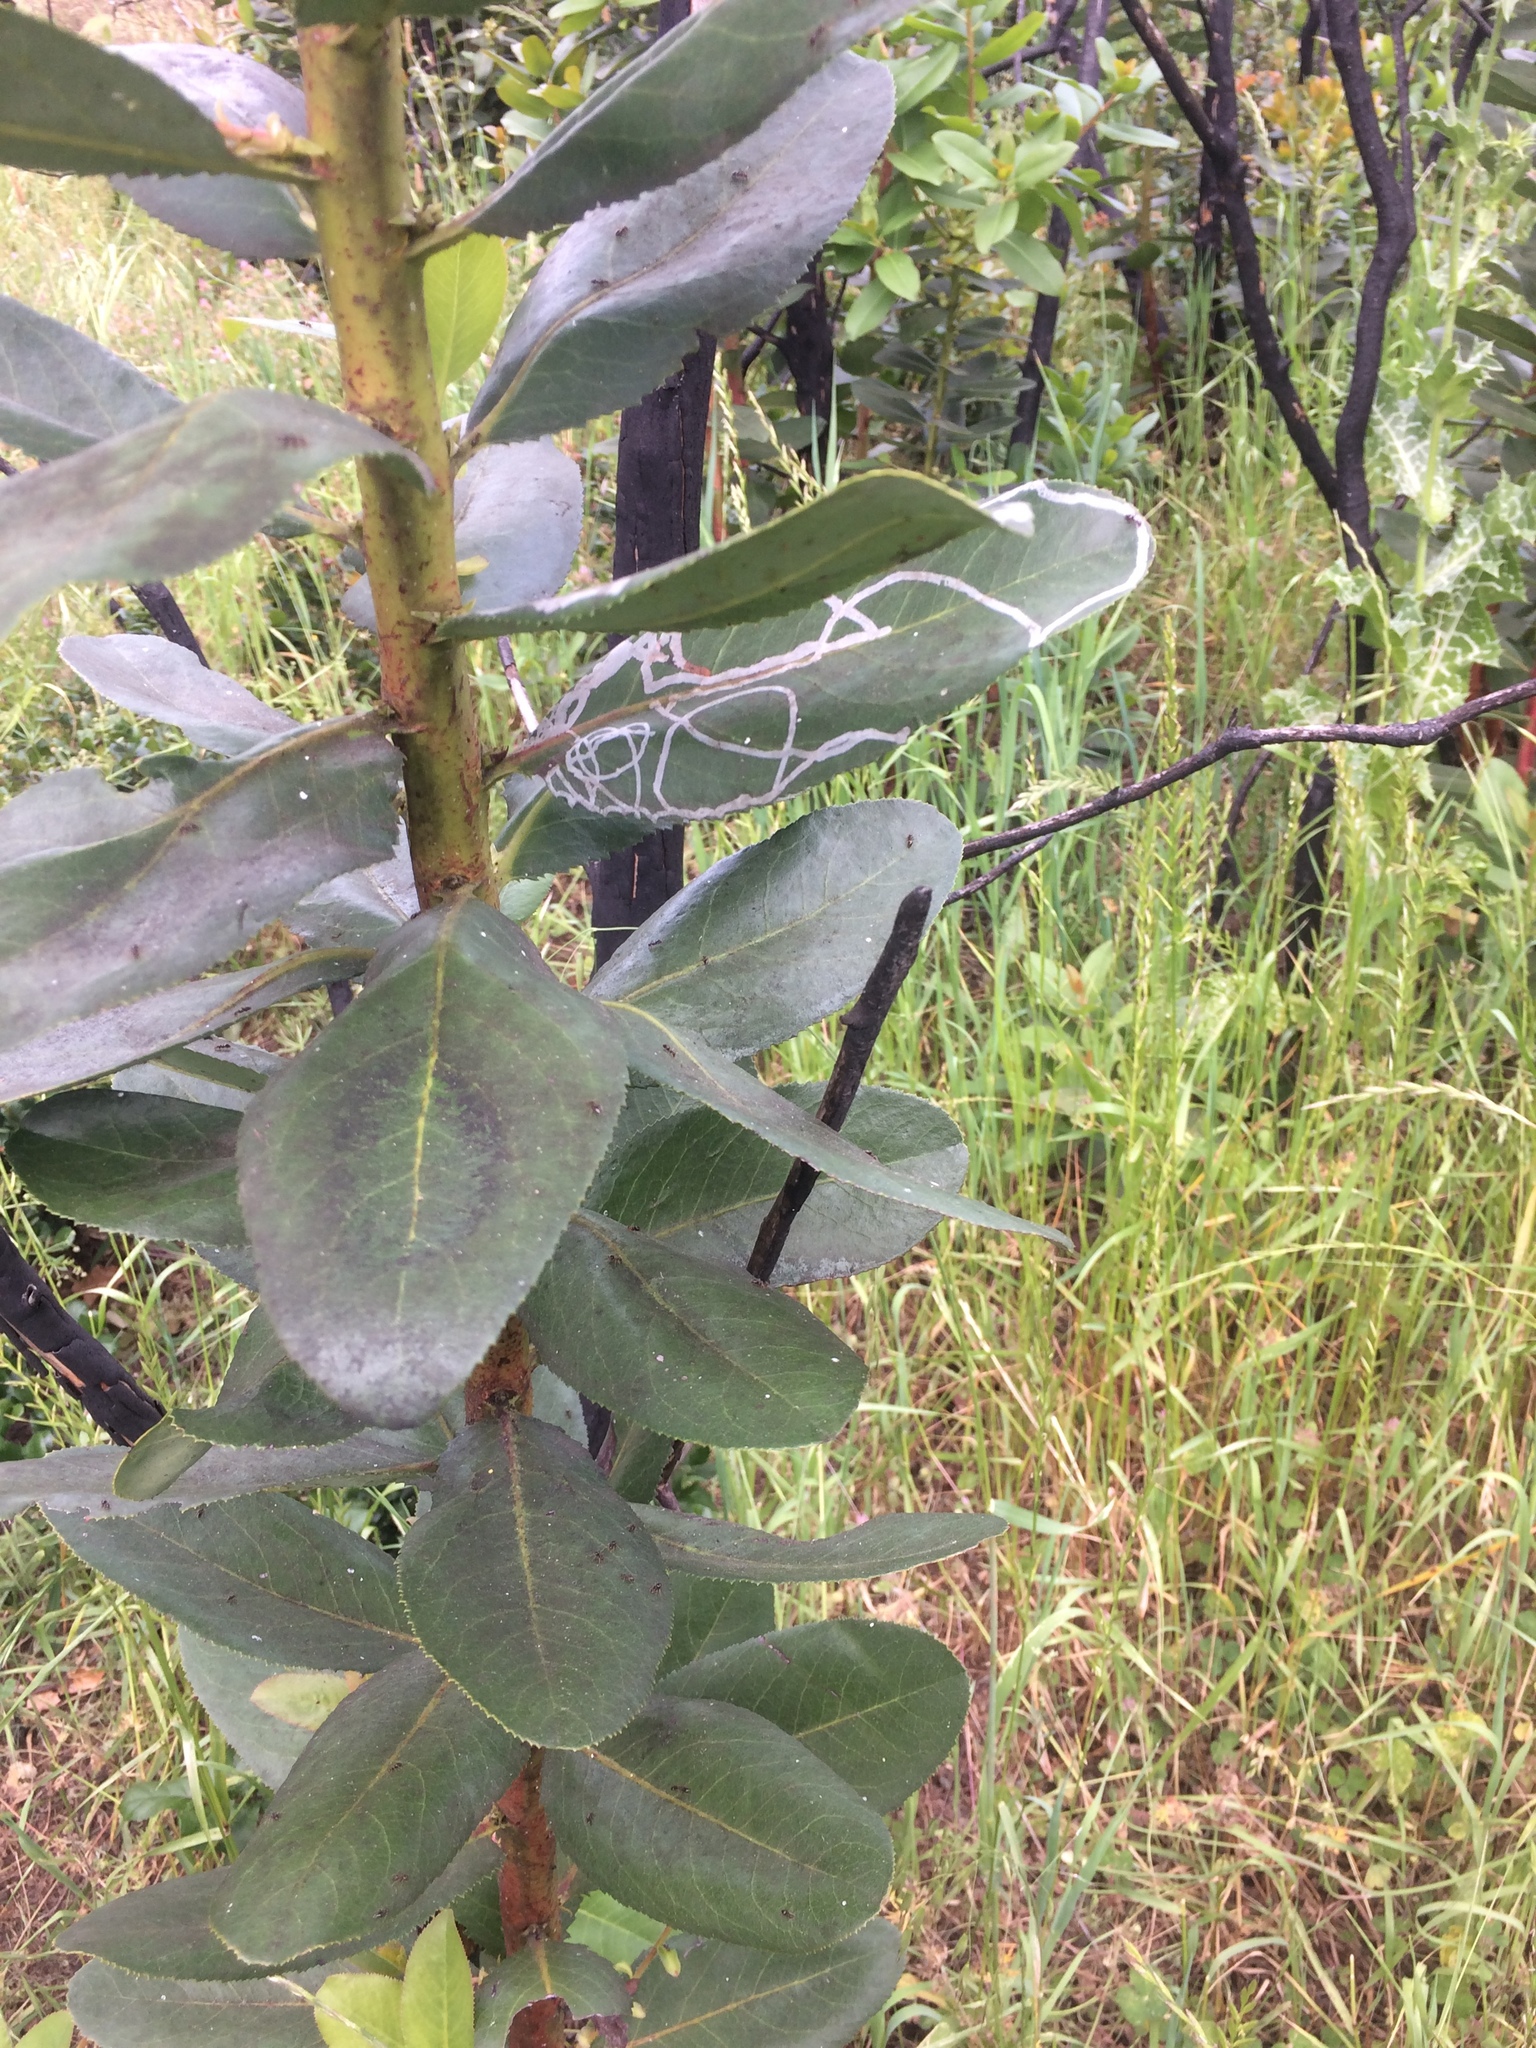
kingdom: Animalia
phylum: Arthropoda
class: Insecta
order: Lepidoptera
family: Gracillariidae
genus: Marmara
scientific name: Marmara arbutiella
